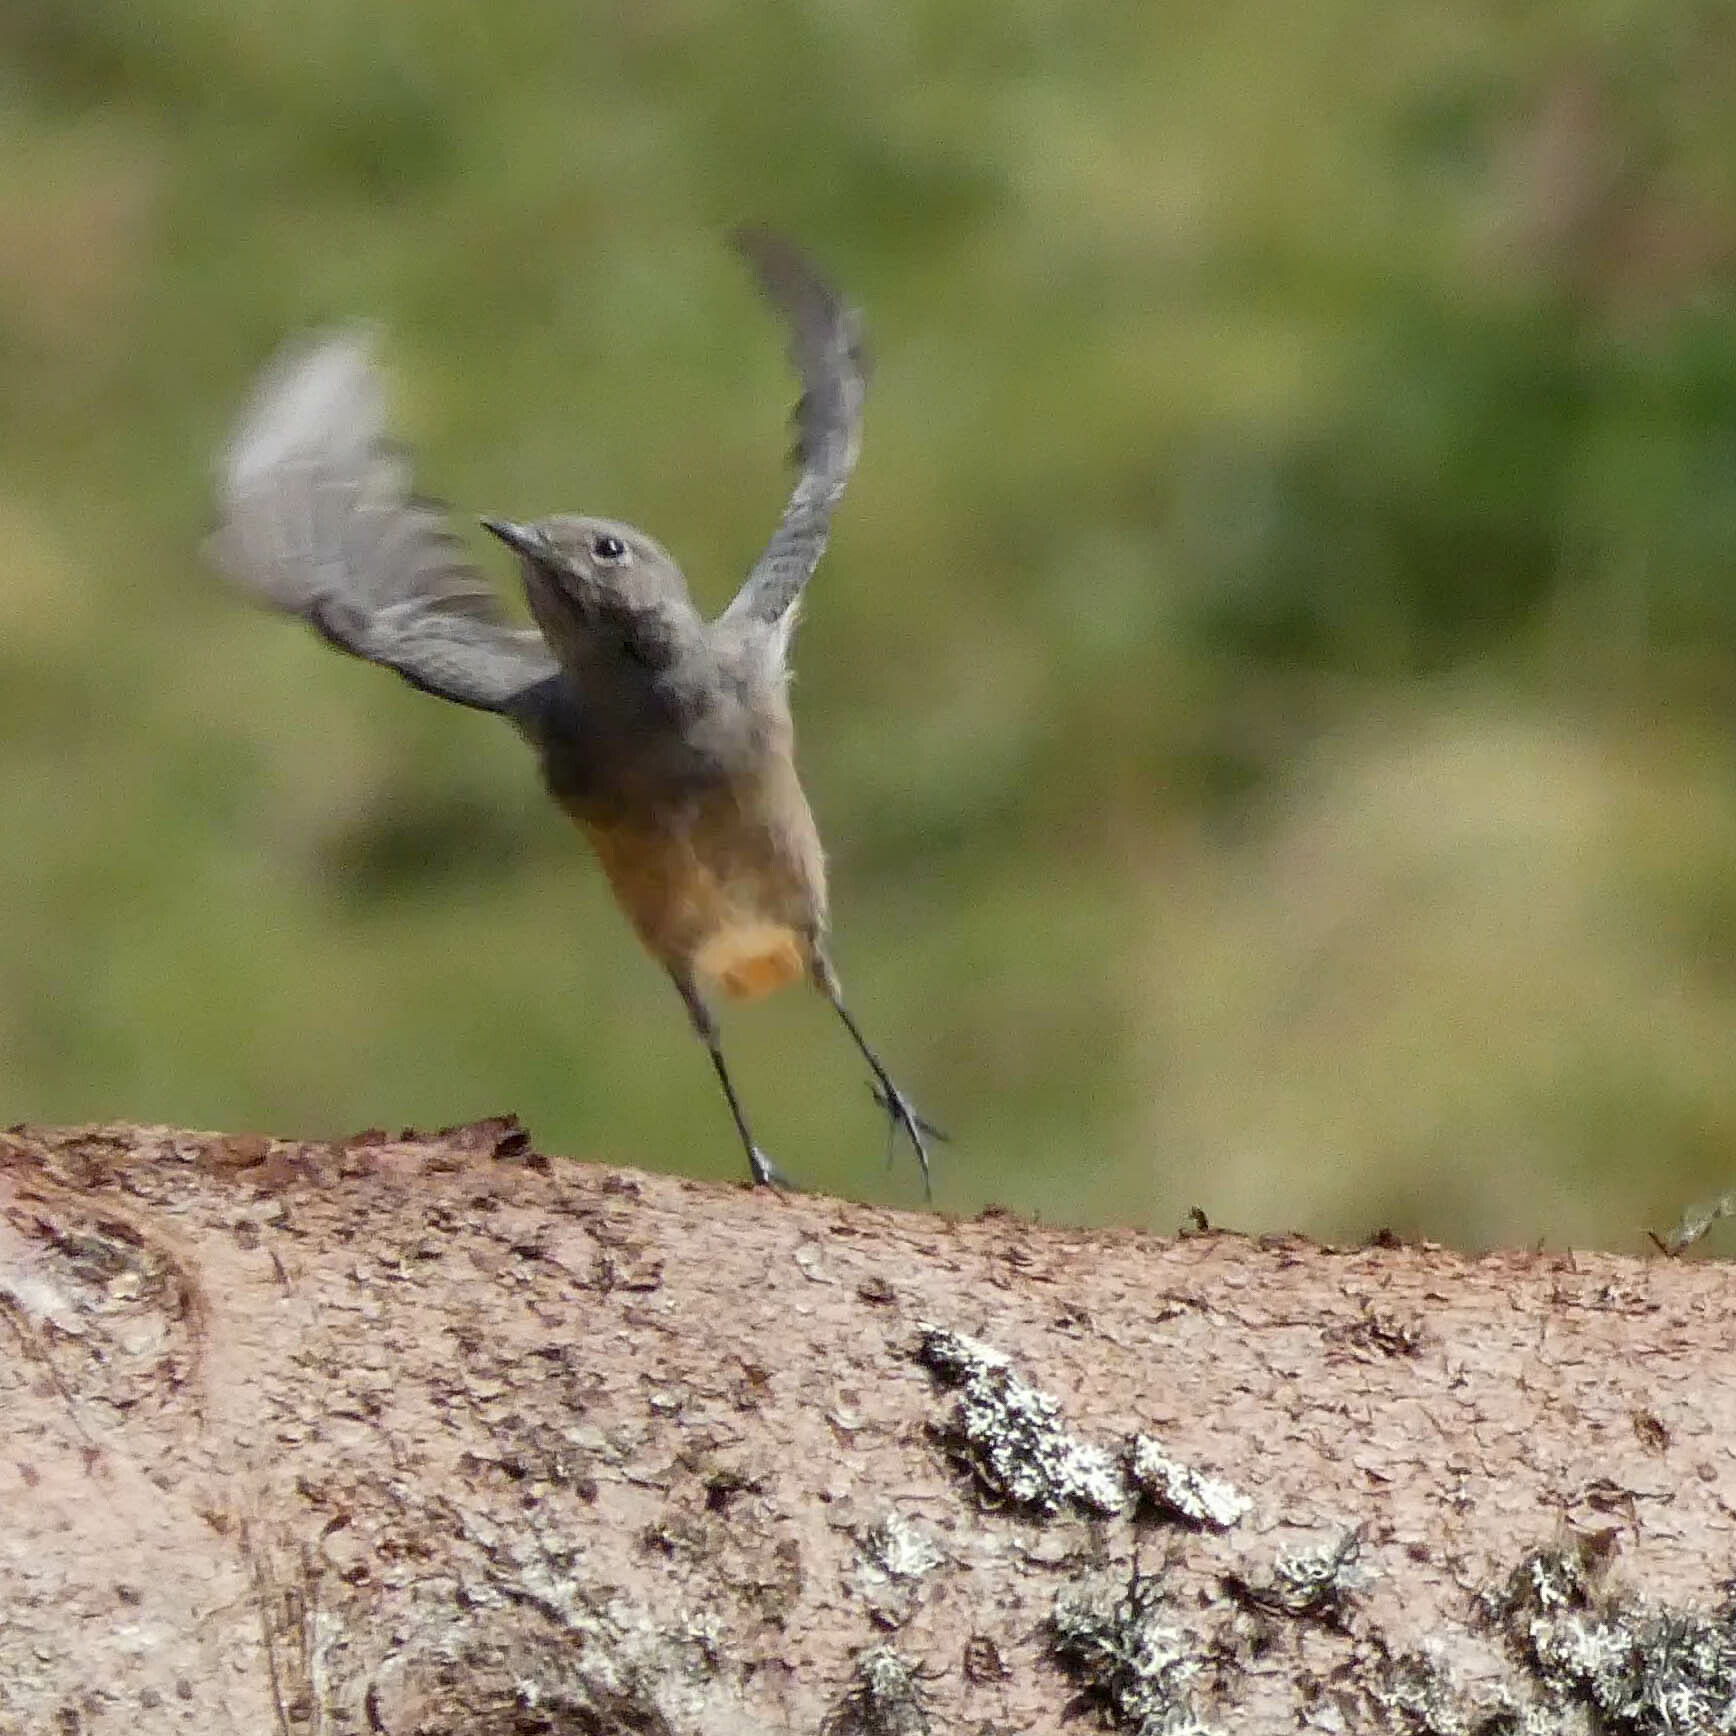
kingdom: Animalia
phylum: Chordata
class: Aves
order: Passeriformes
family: Muscicapidae
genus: Phoenicurus
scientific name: Phoenicurus ochruros
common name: Black redstart
